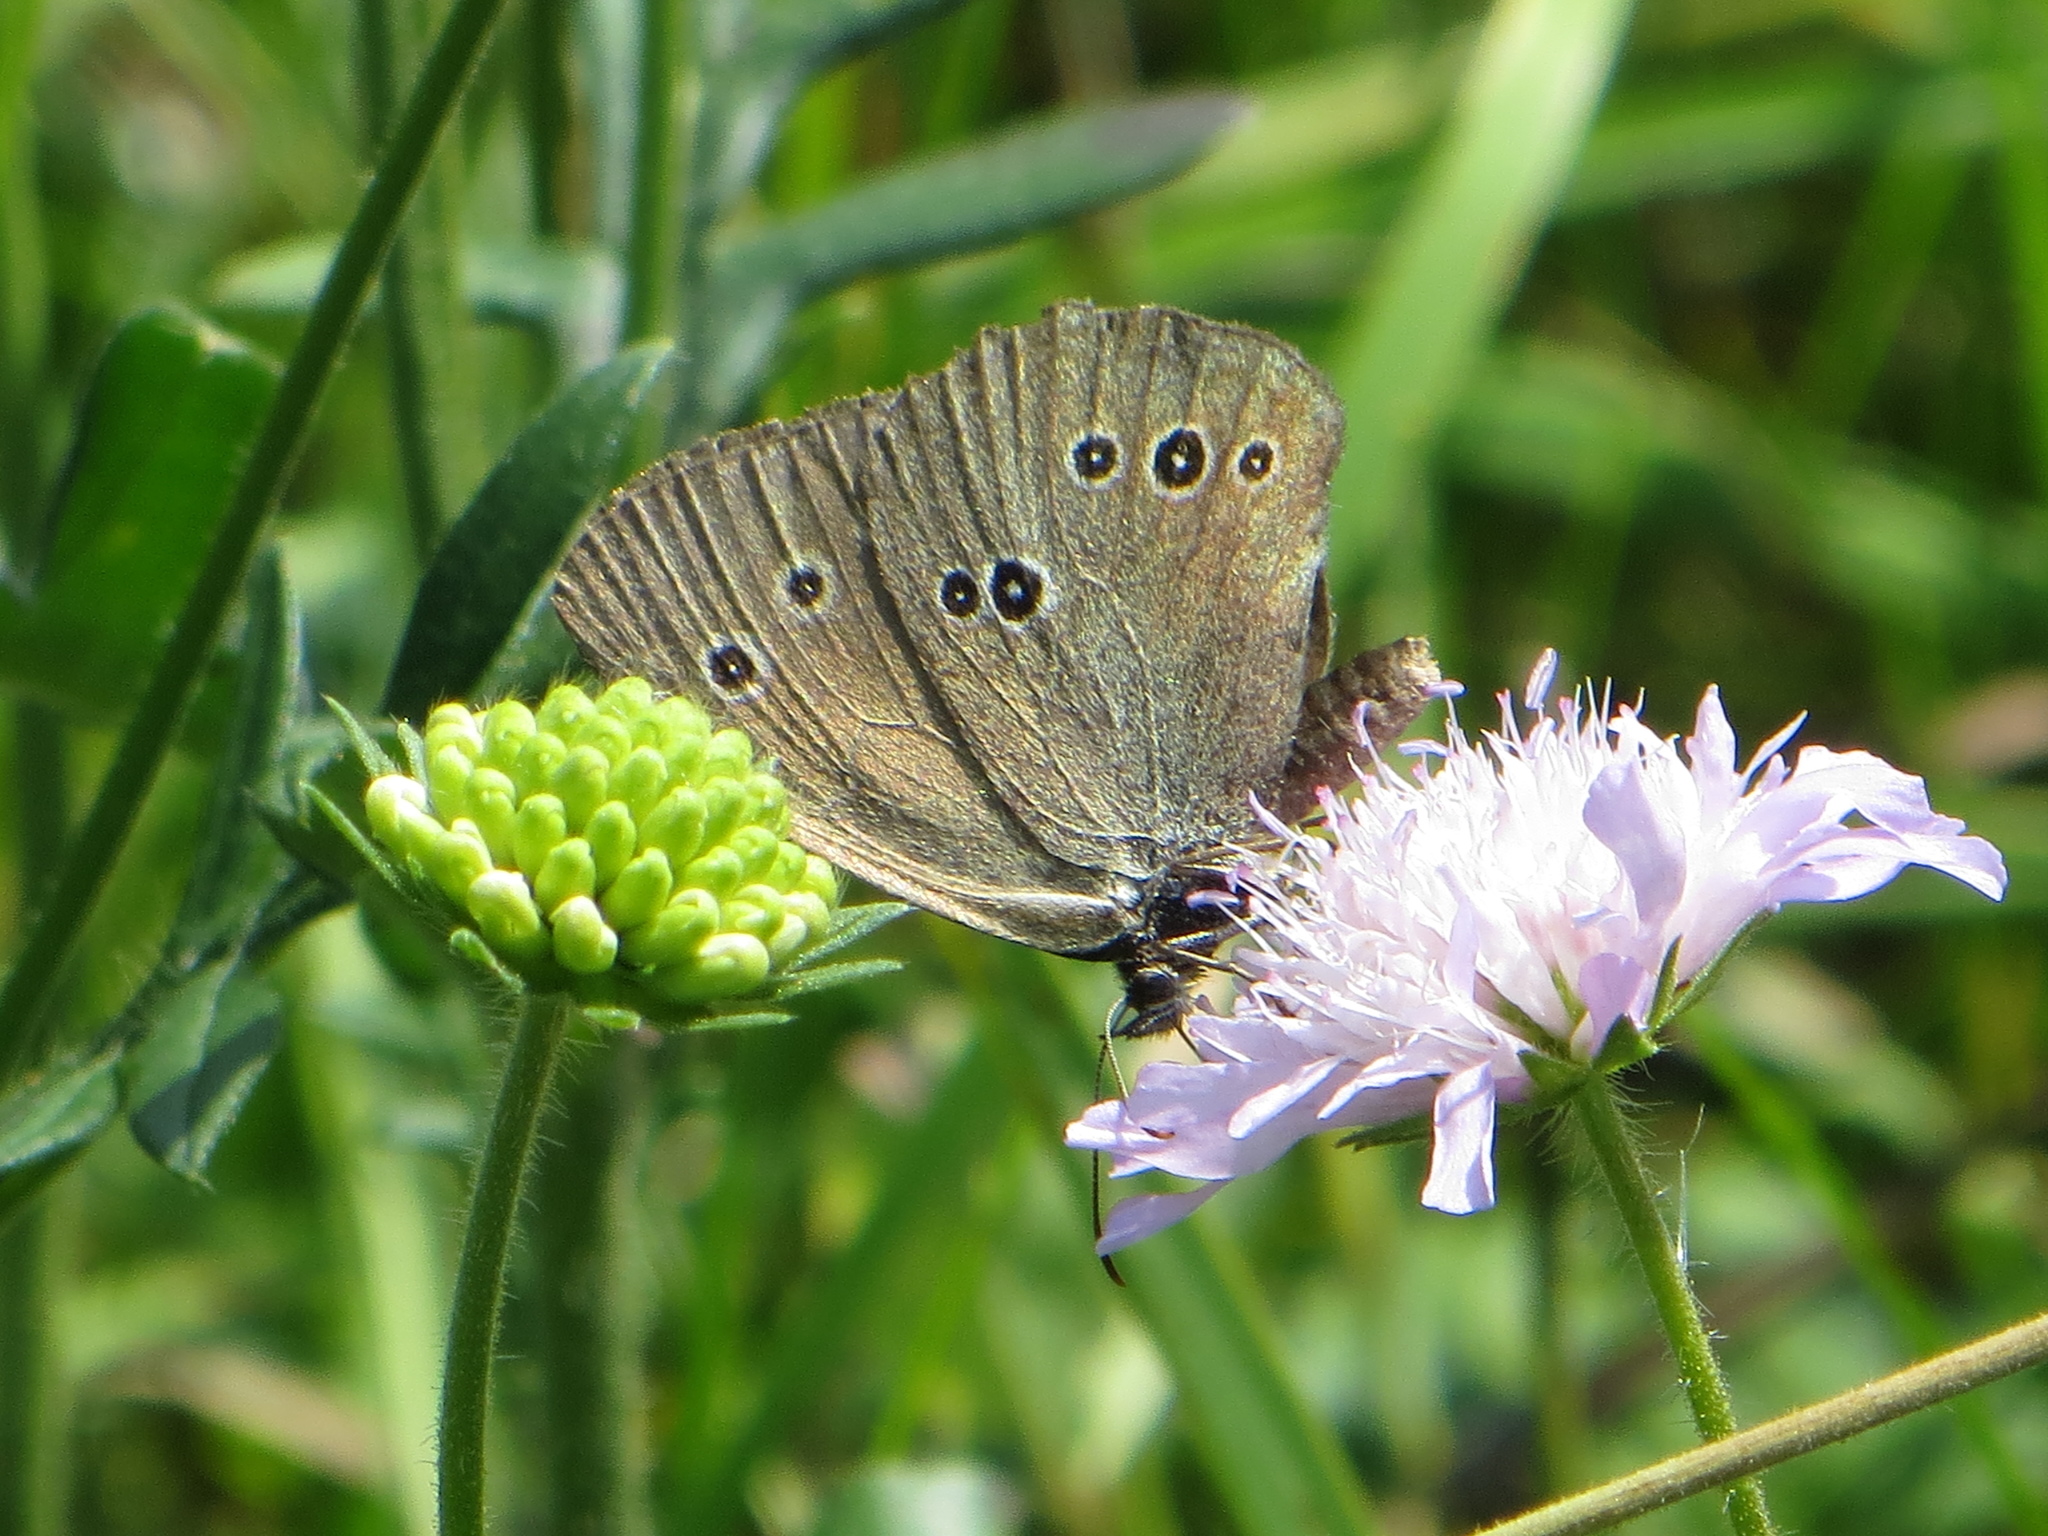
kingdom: Animalia
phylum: Arthropoda
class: Insecta
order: Lepidoptera
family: Nymphalidae
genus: Aphantopus
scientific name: Aphantopus hyperantus
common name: Ringlet
